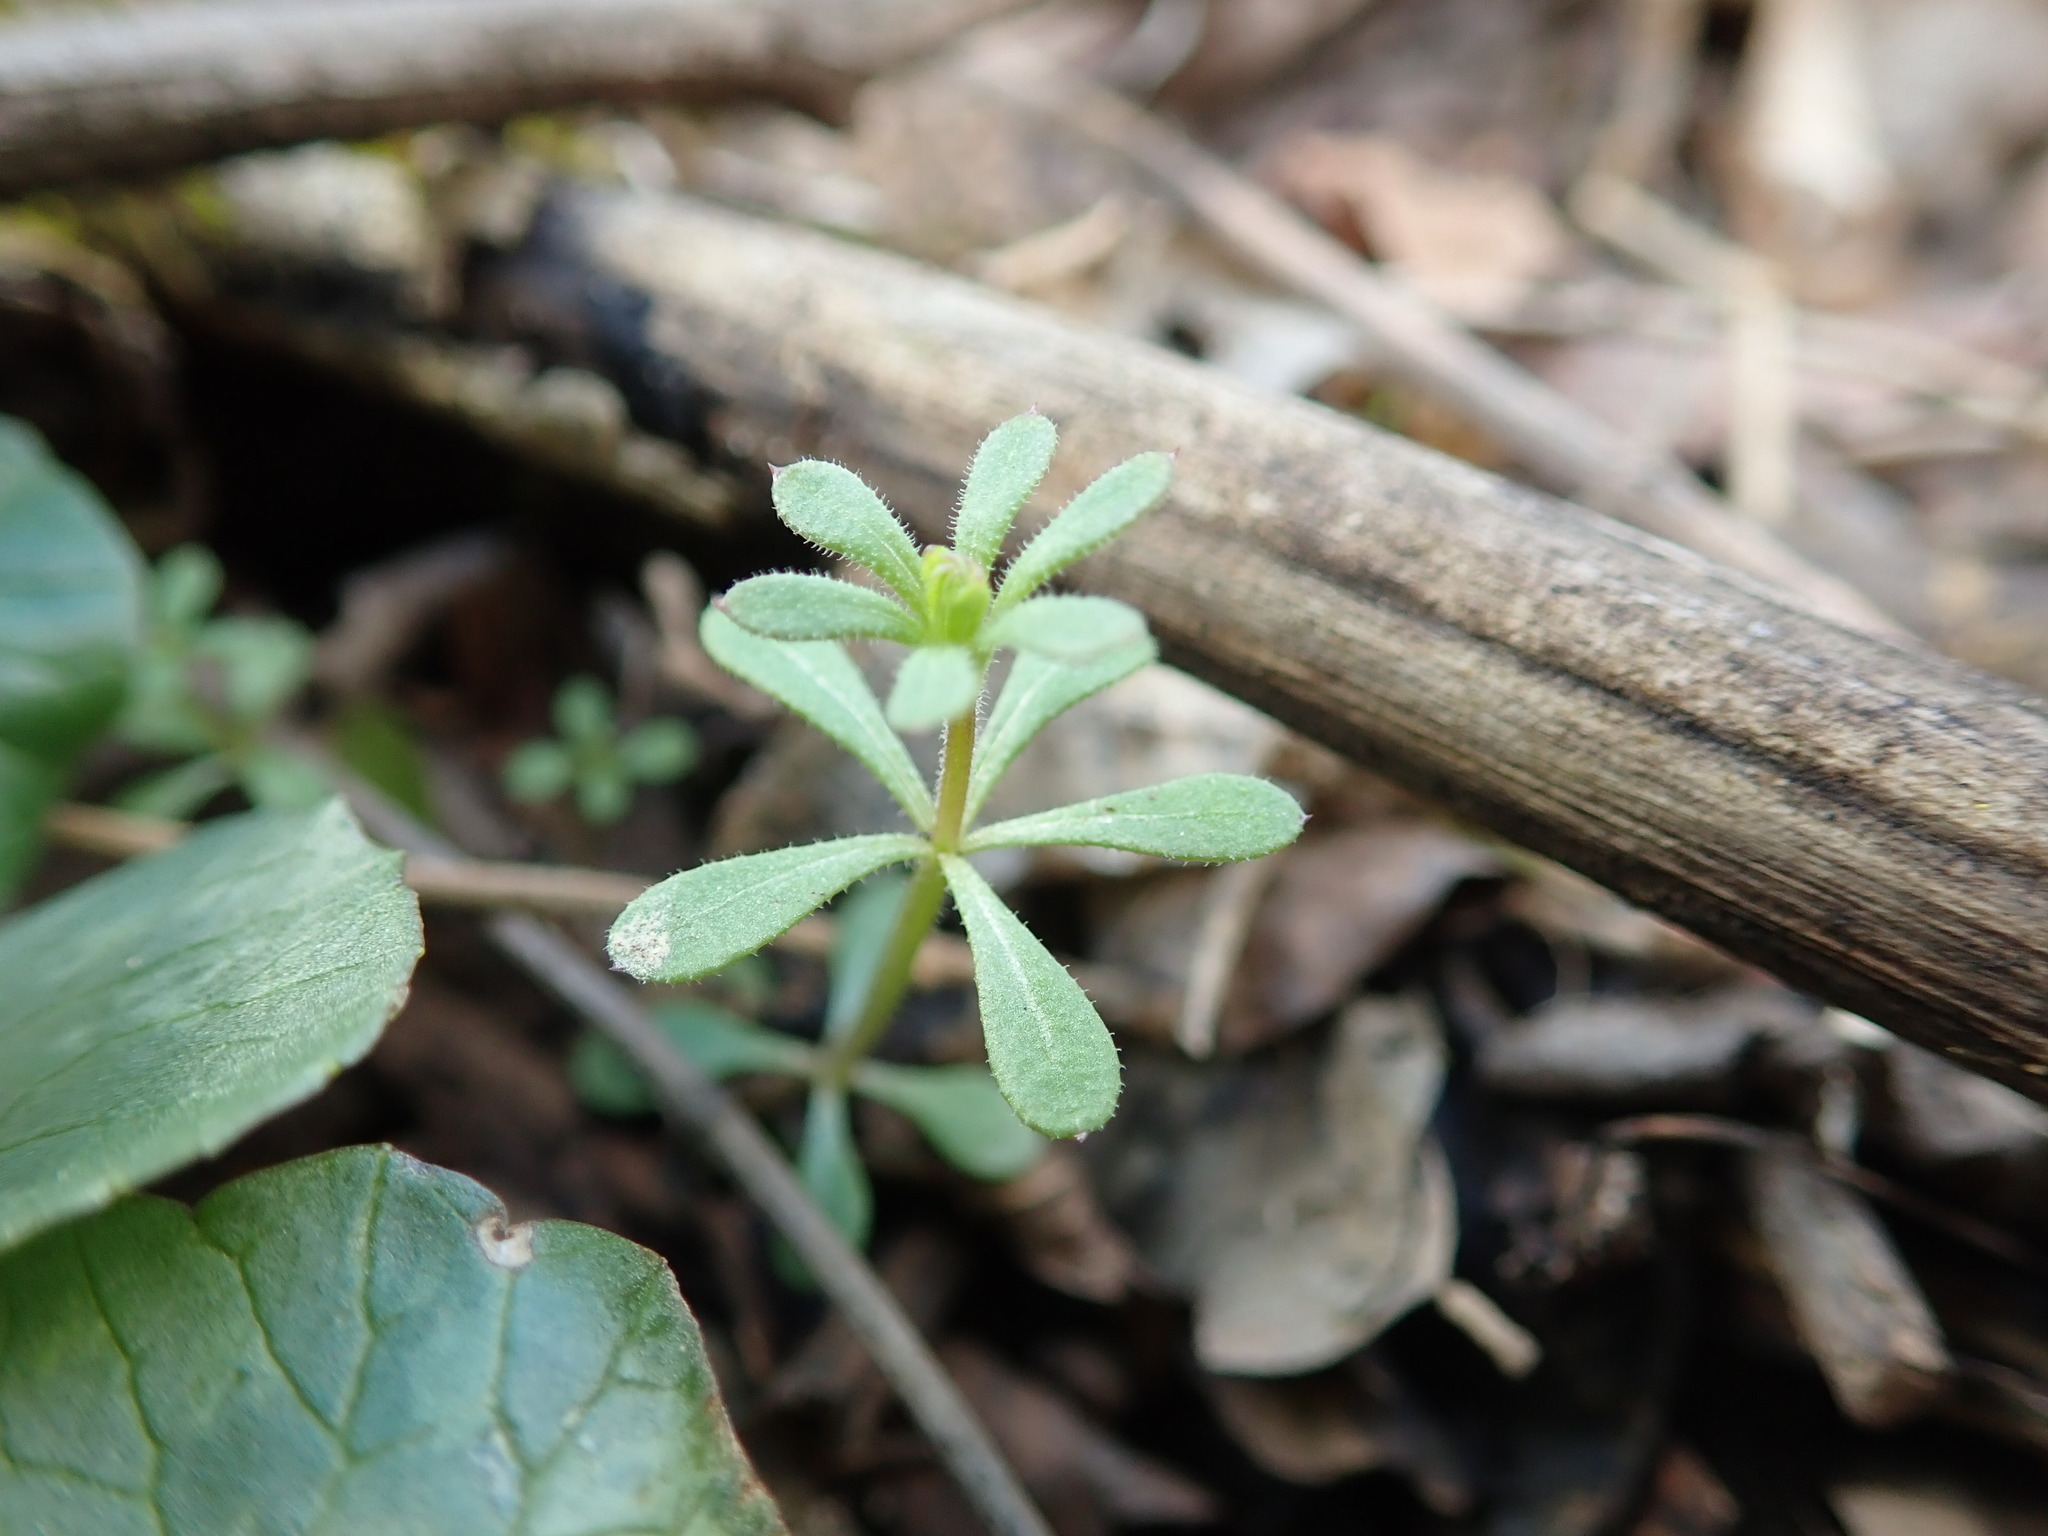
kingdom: Plantae
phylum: Tracheophyta
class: Magnoliopsida
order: Gentianales
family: Rubiaceae
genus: Galium
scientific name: Galium aparine
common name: Cleavers
